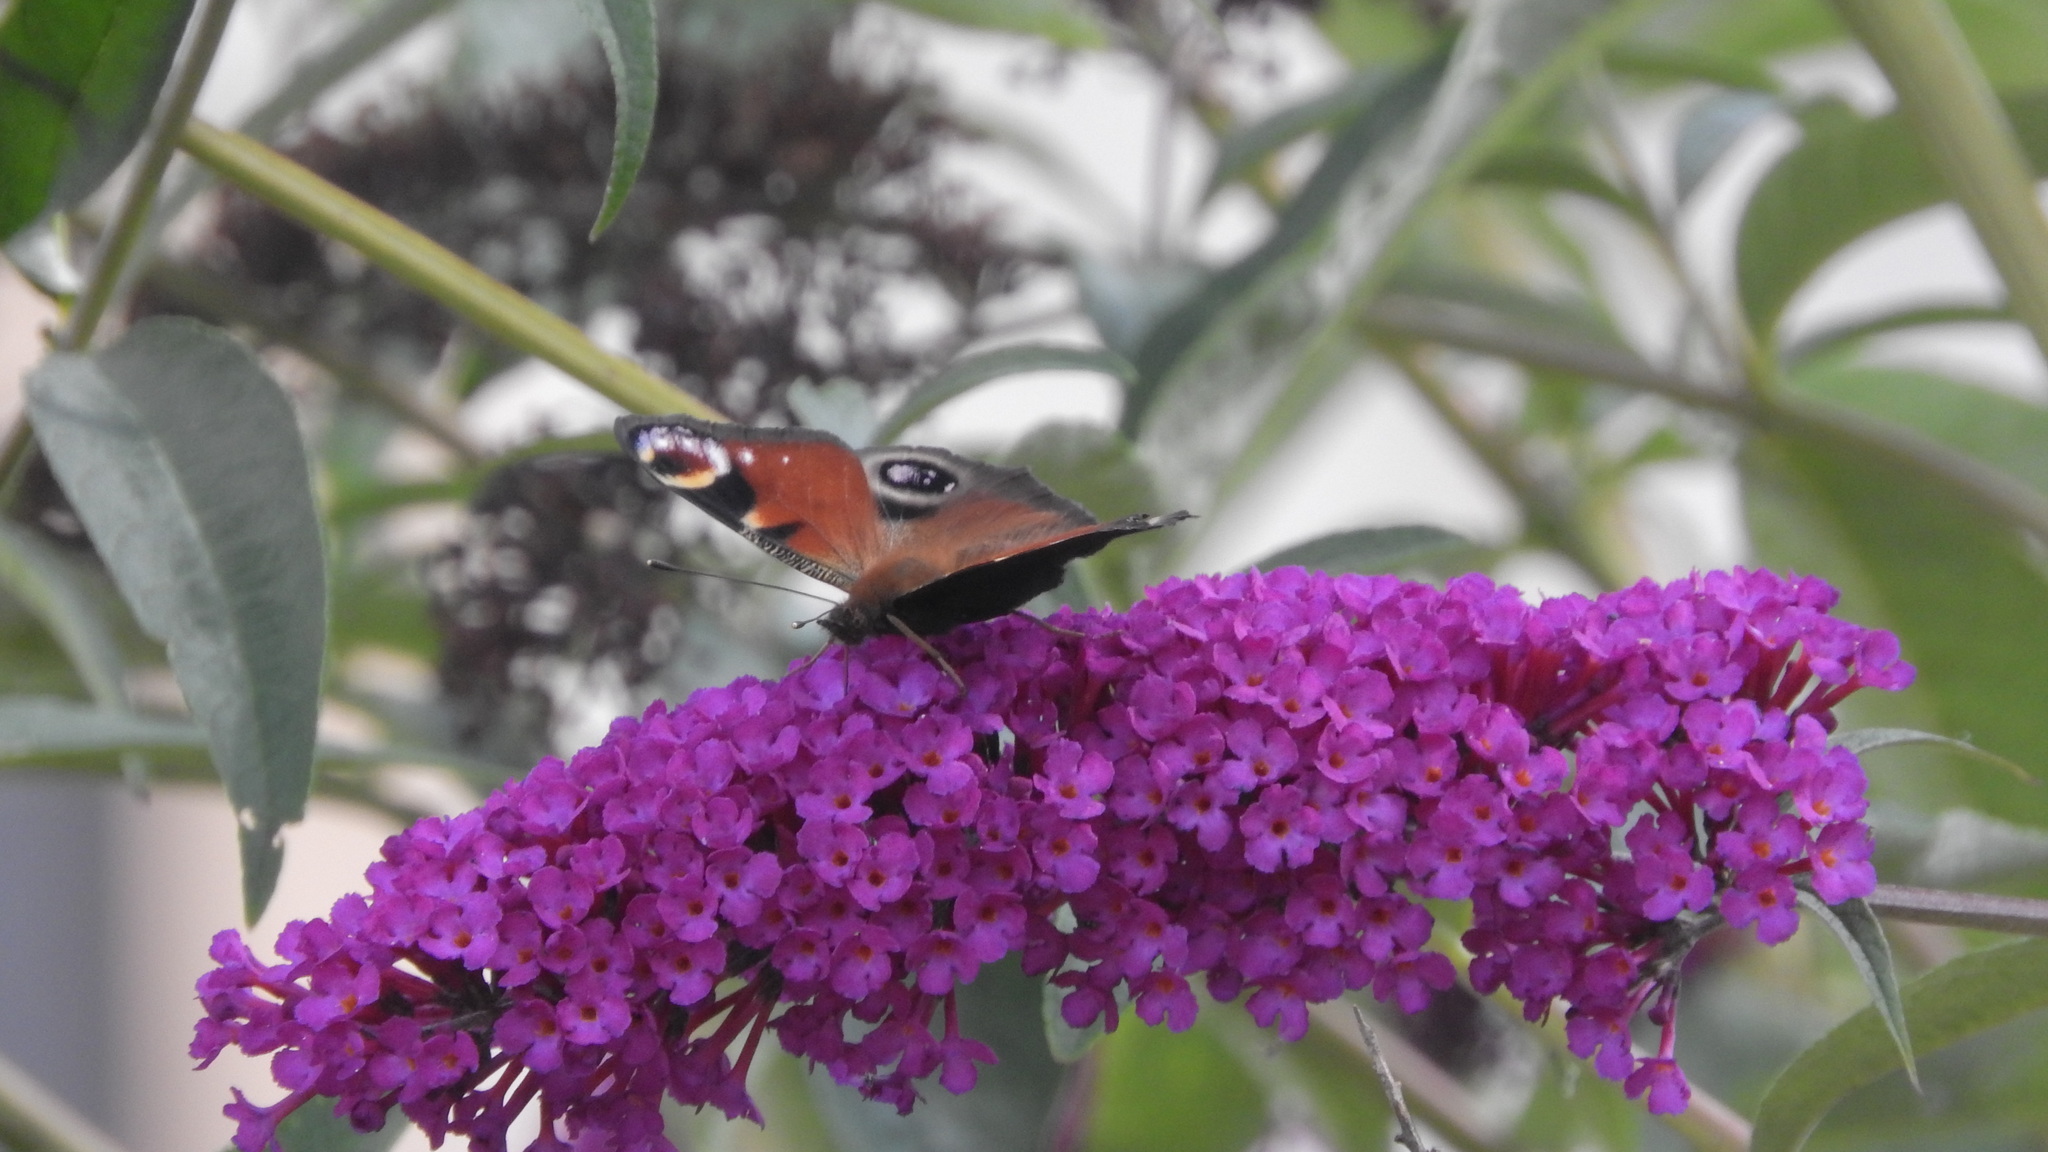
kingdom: Animalia
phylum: Arthropoda
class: Insecta
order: Lepidoptera
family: Nymphalidae
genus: Aglais
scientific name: Aglais io
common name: Peacock
